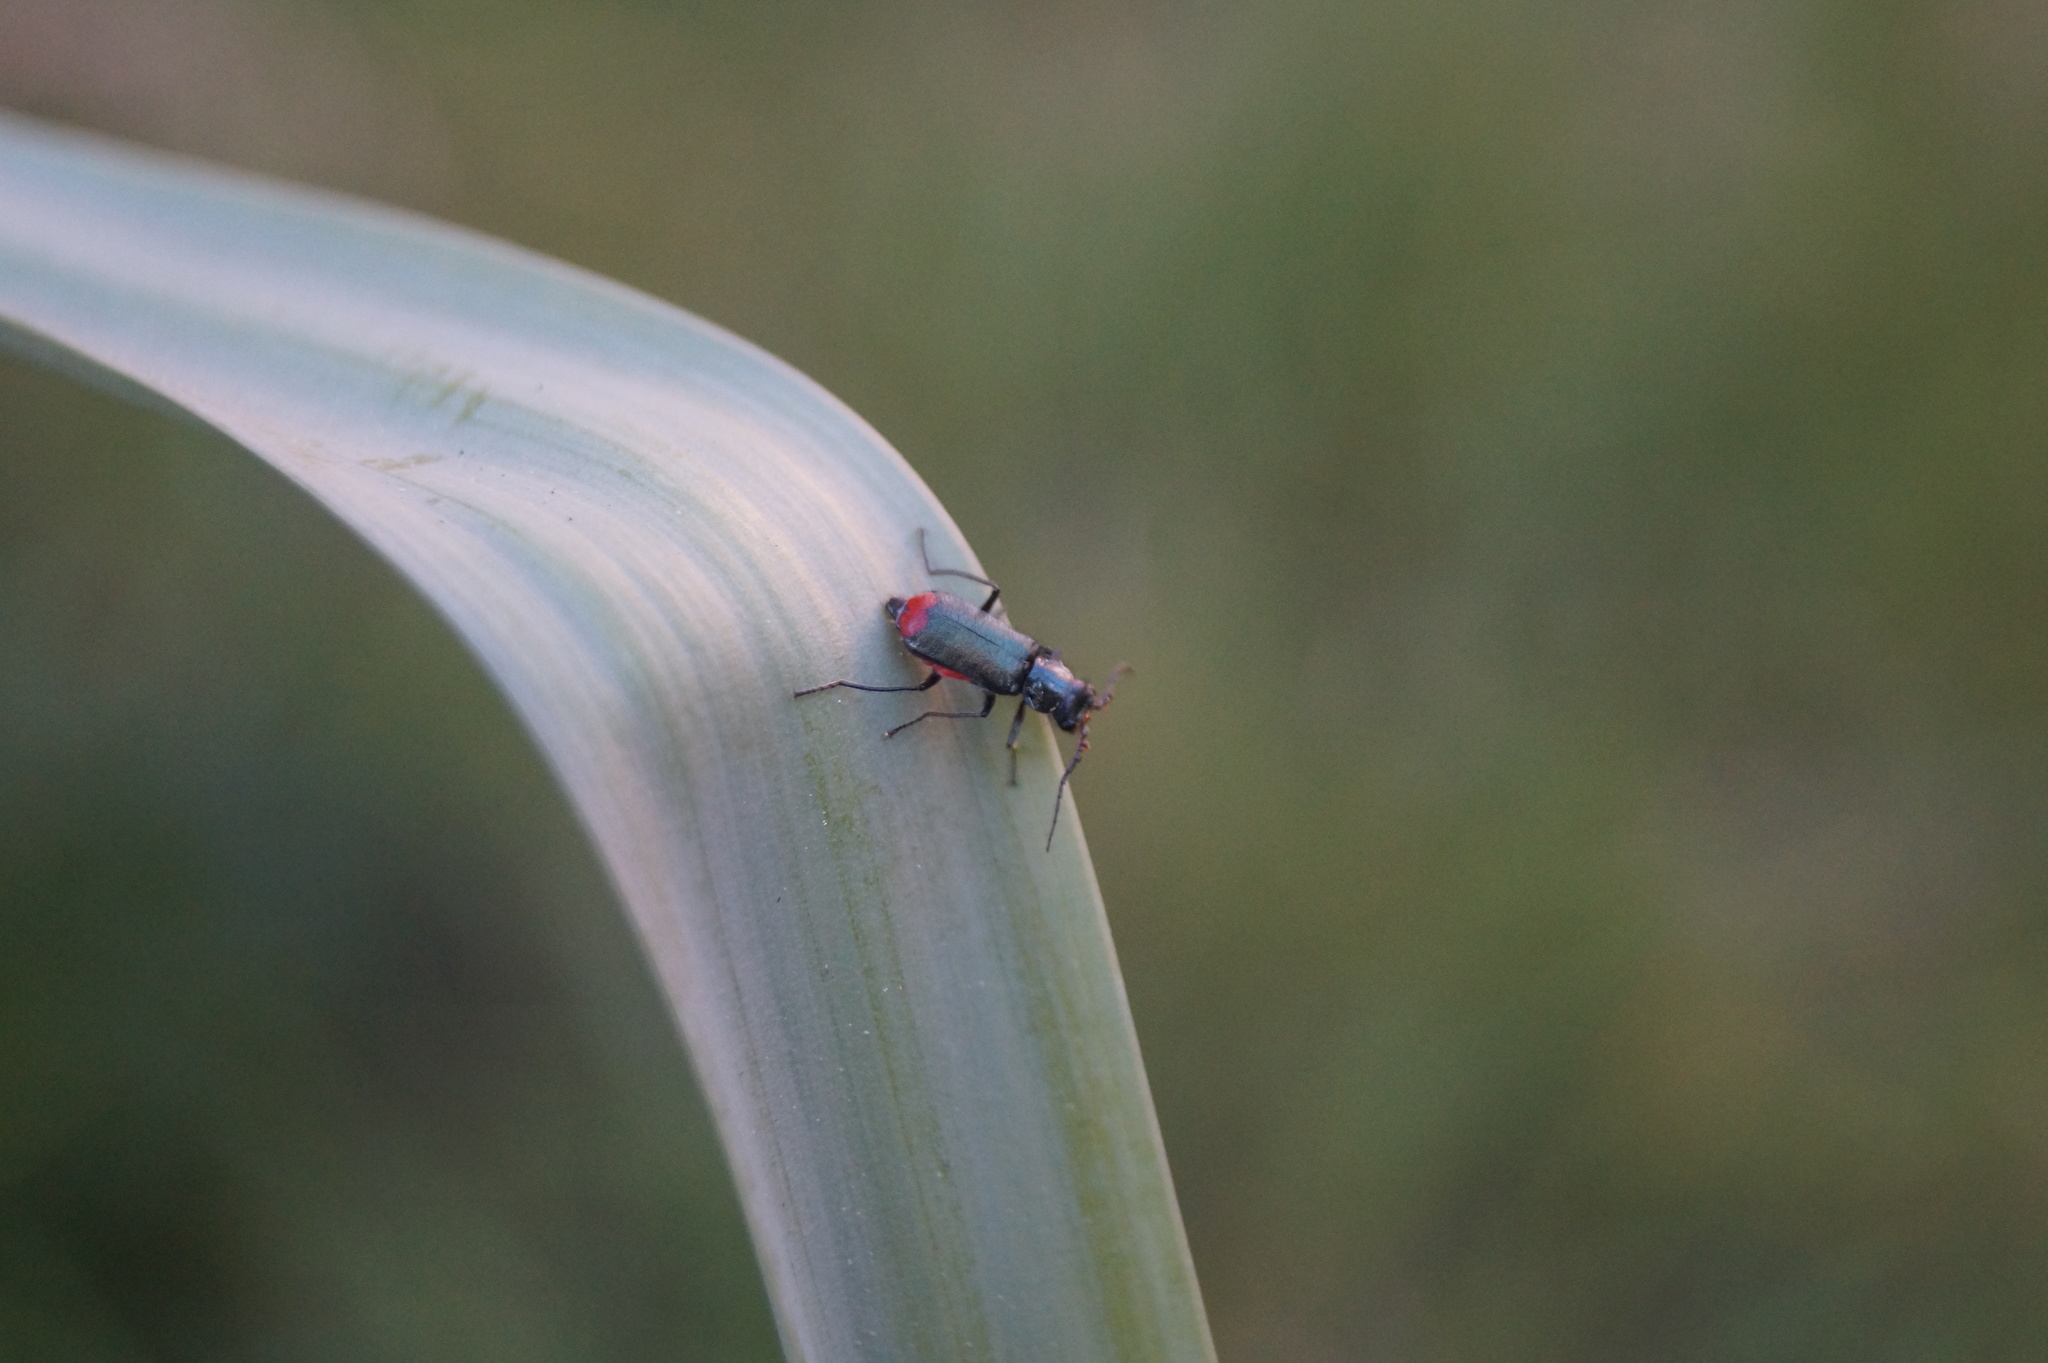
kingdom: Animalia
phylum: Arthropoda
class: Insecta
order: Coleoptera
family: Melyridae
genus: Malachius
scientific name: Malachius bipustulatus
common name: Malachite beetle
